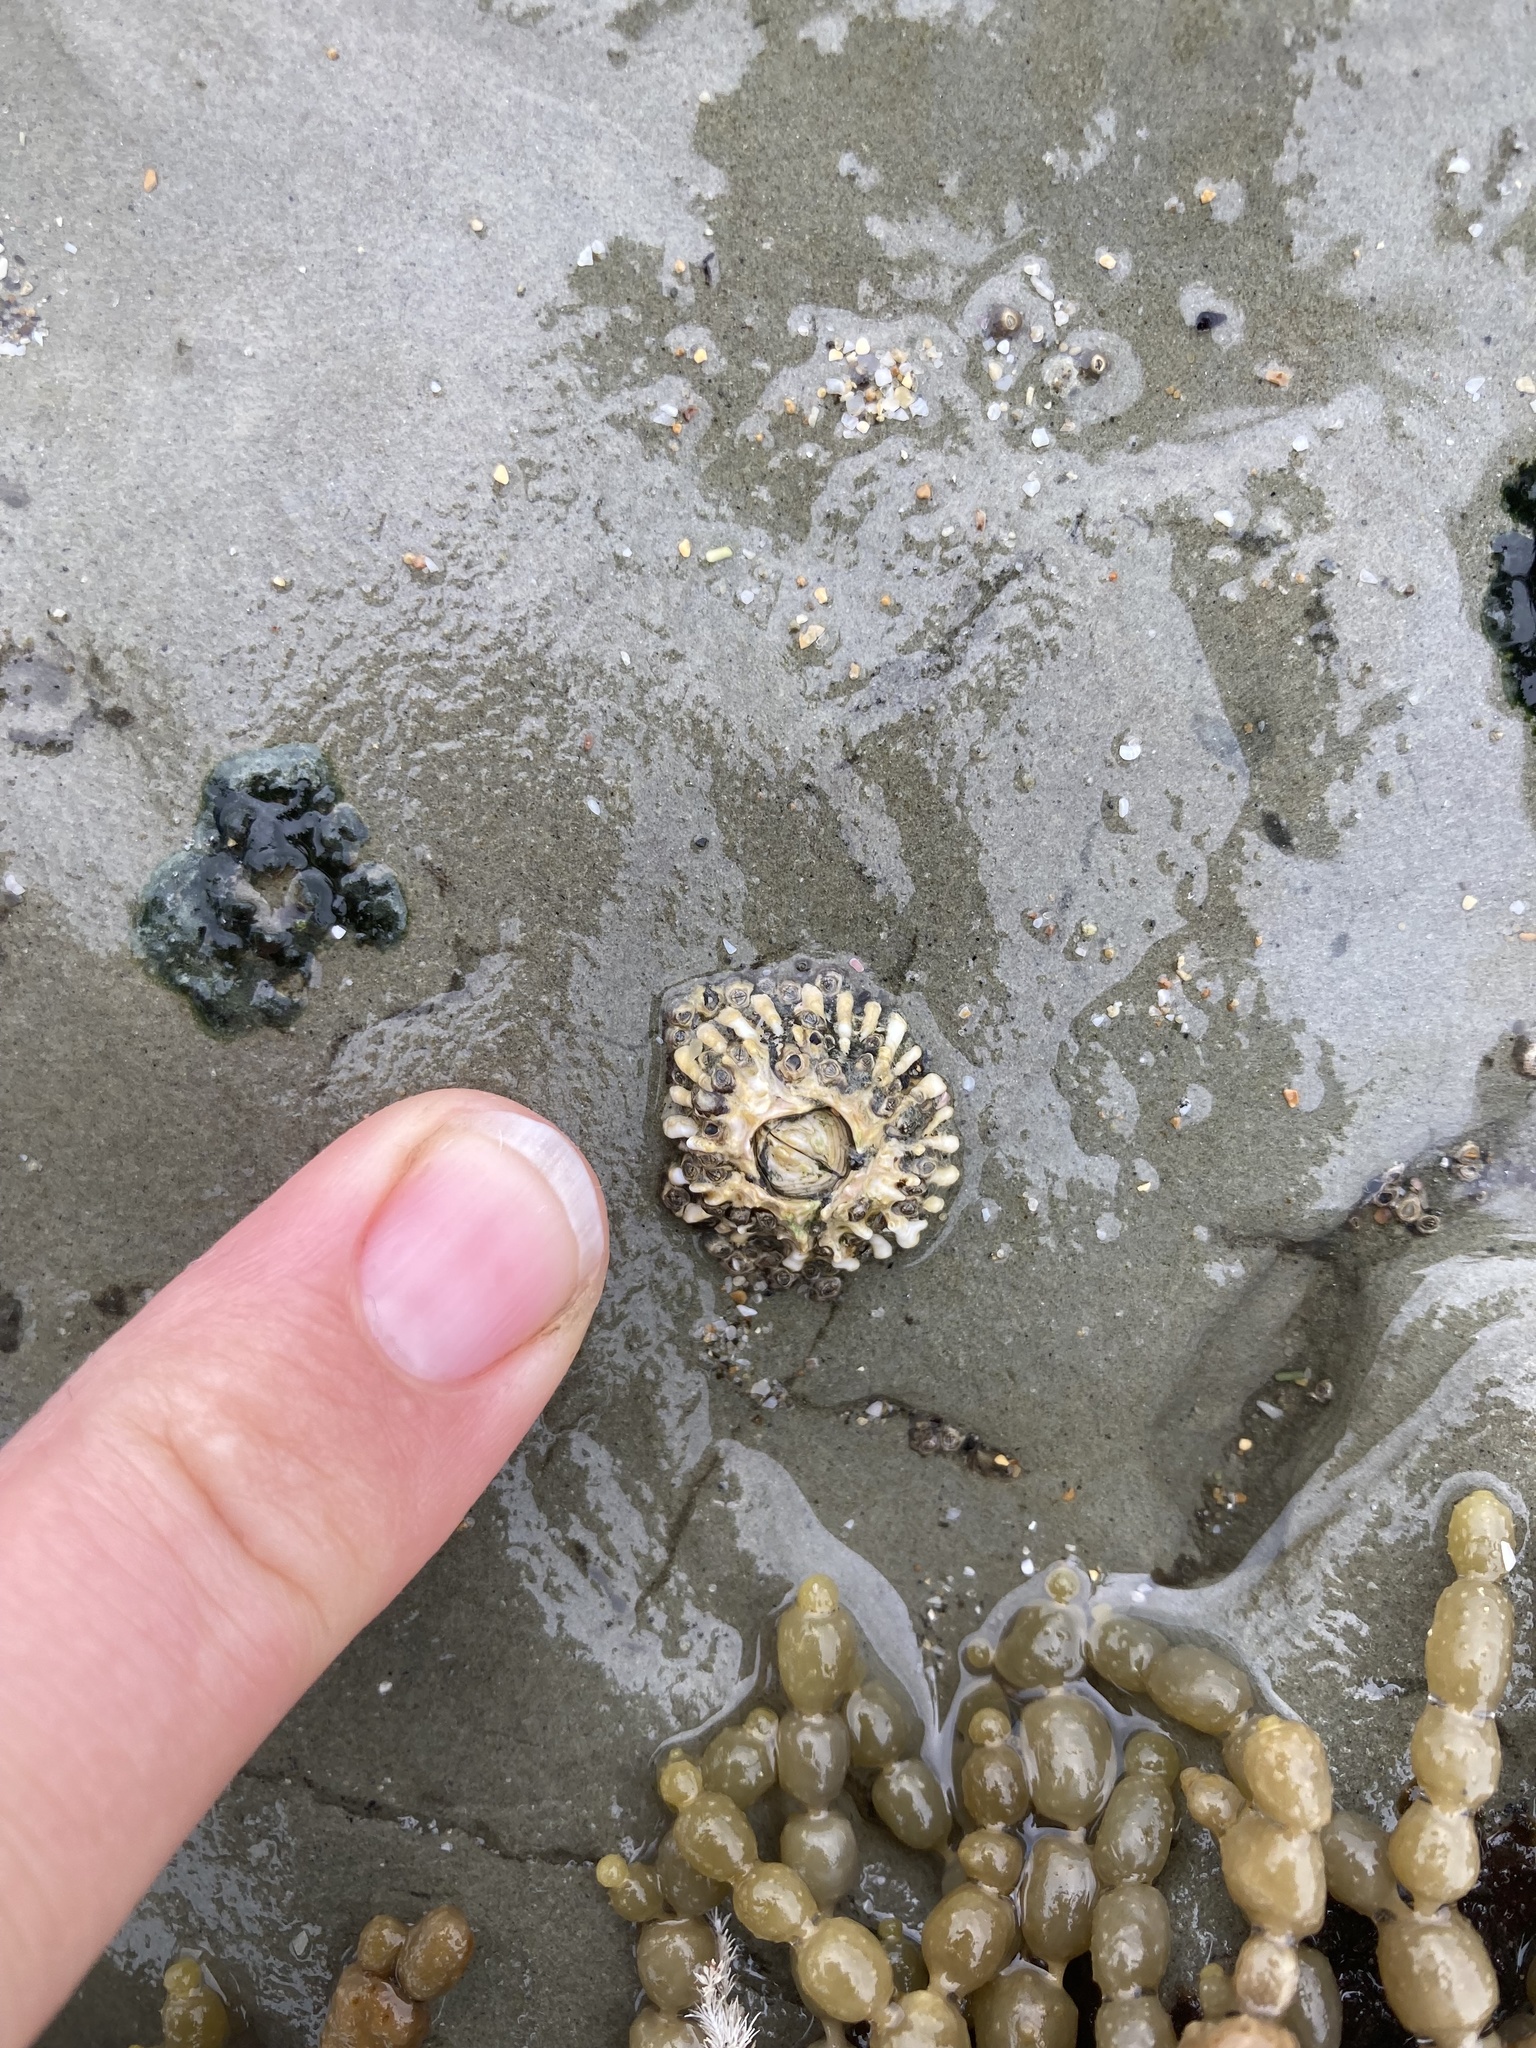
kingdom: Animalia
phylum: Arthropoda
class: Maxillopoda
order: Sessilia
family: Tetraclitidae
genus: Epopella
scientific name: Epopella plicata
